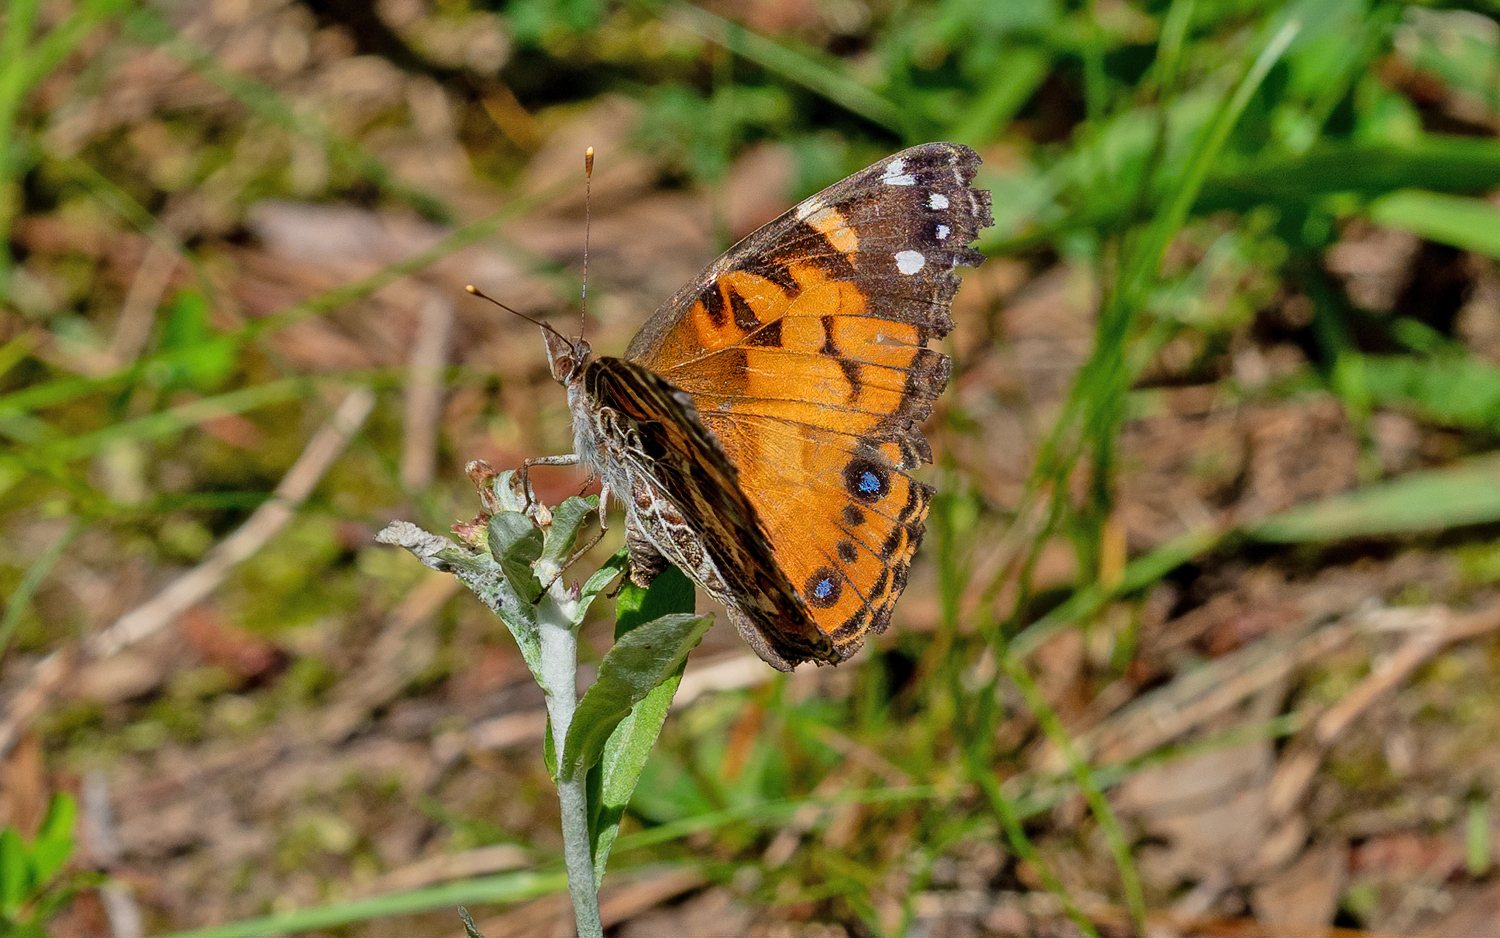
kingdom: Animalia
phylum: Arthropoda
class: Insecta
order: Lepidoptera
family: Nymphalidae
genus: Vanessa
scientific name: Vanessa virginiensis
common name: American lady
